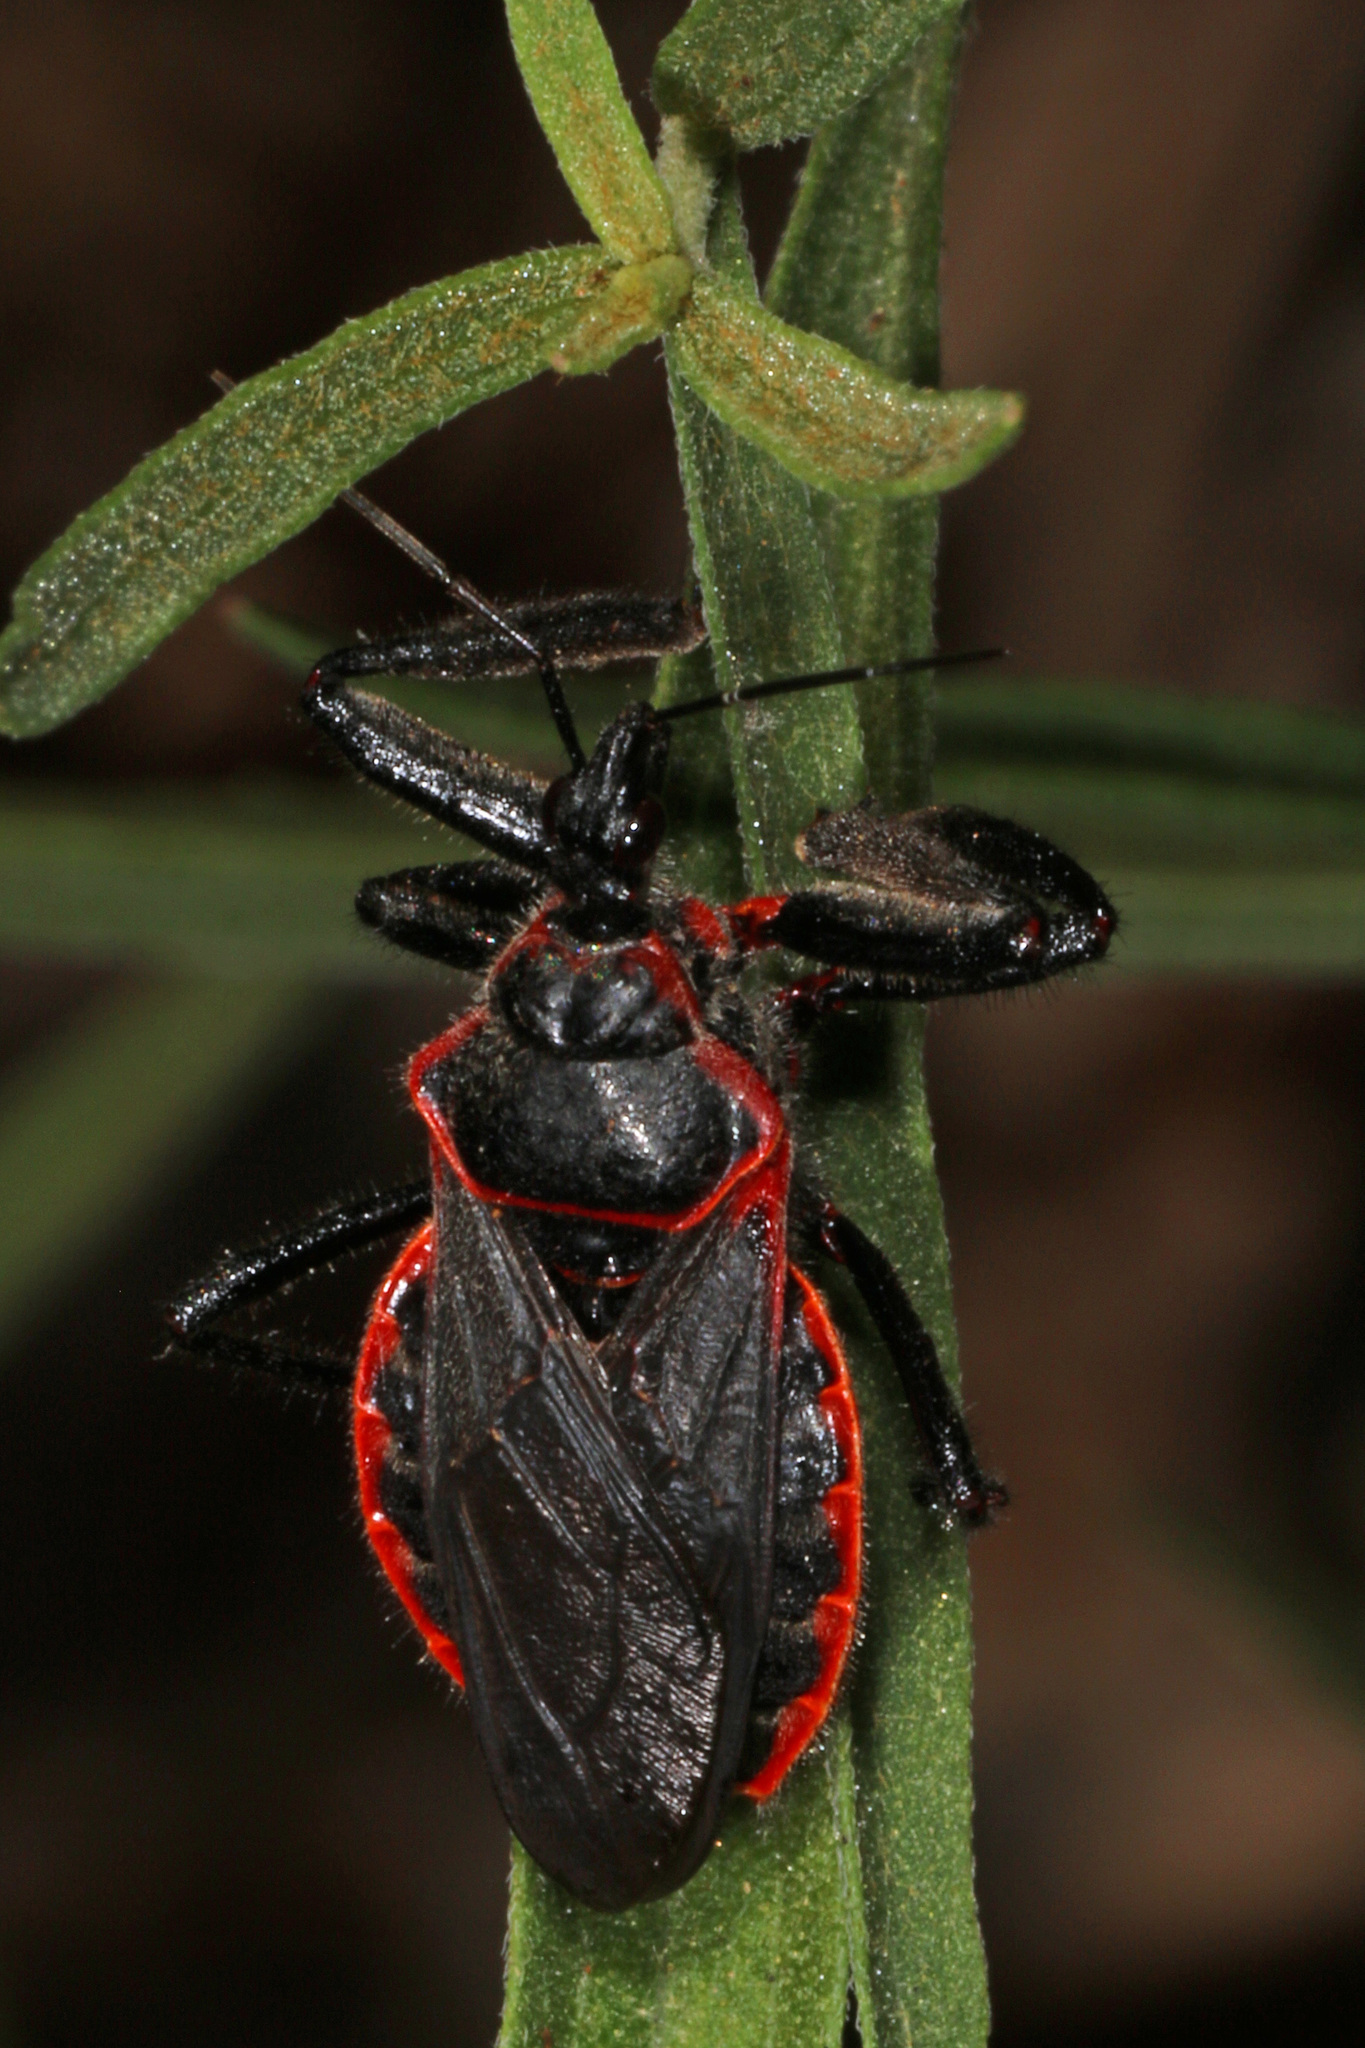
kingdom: Animalia
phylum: Arthropoda
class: Insecta
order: Hemiptera
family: Reduviidae
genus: Apiomerus
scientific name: Apiomerus crassipes
